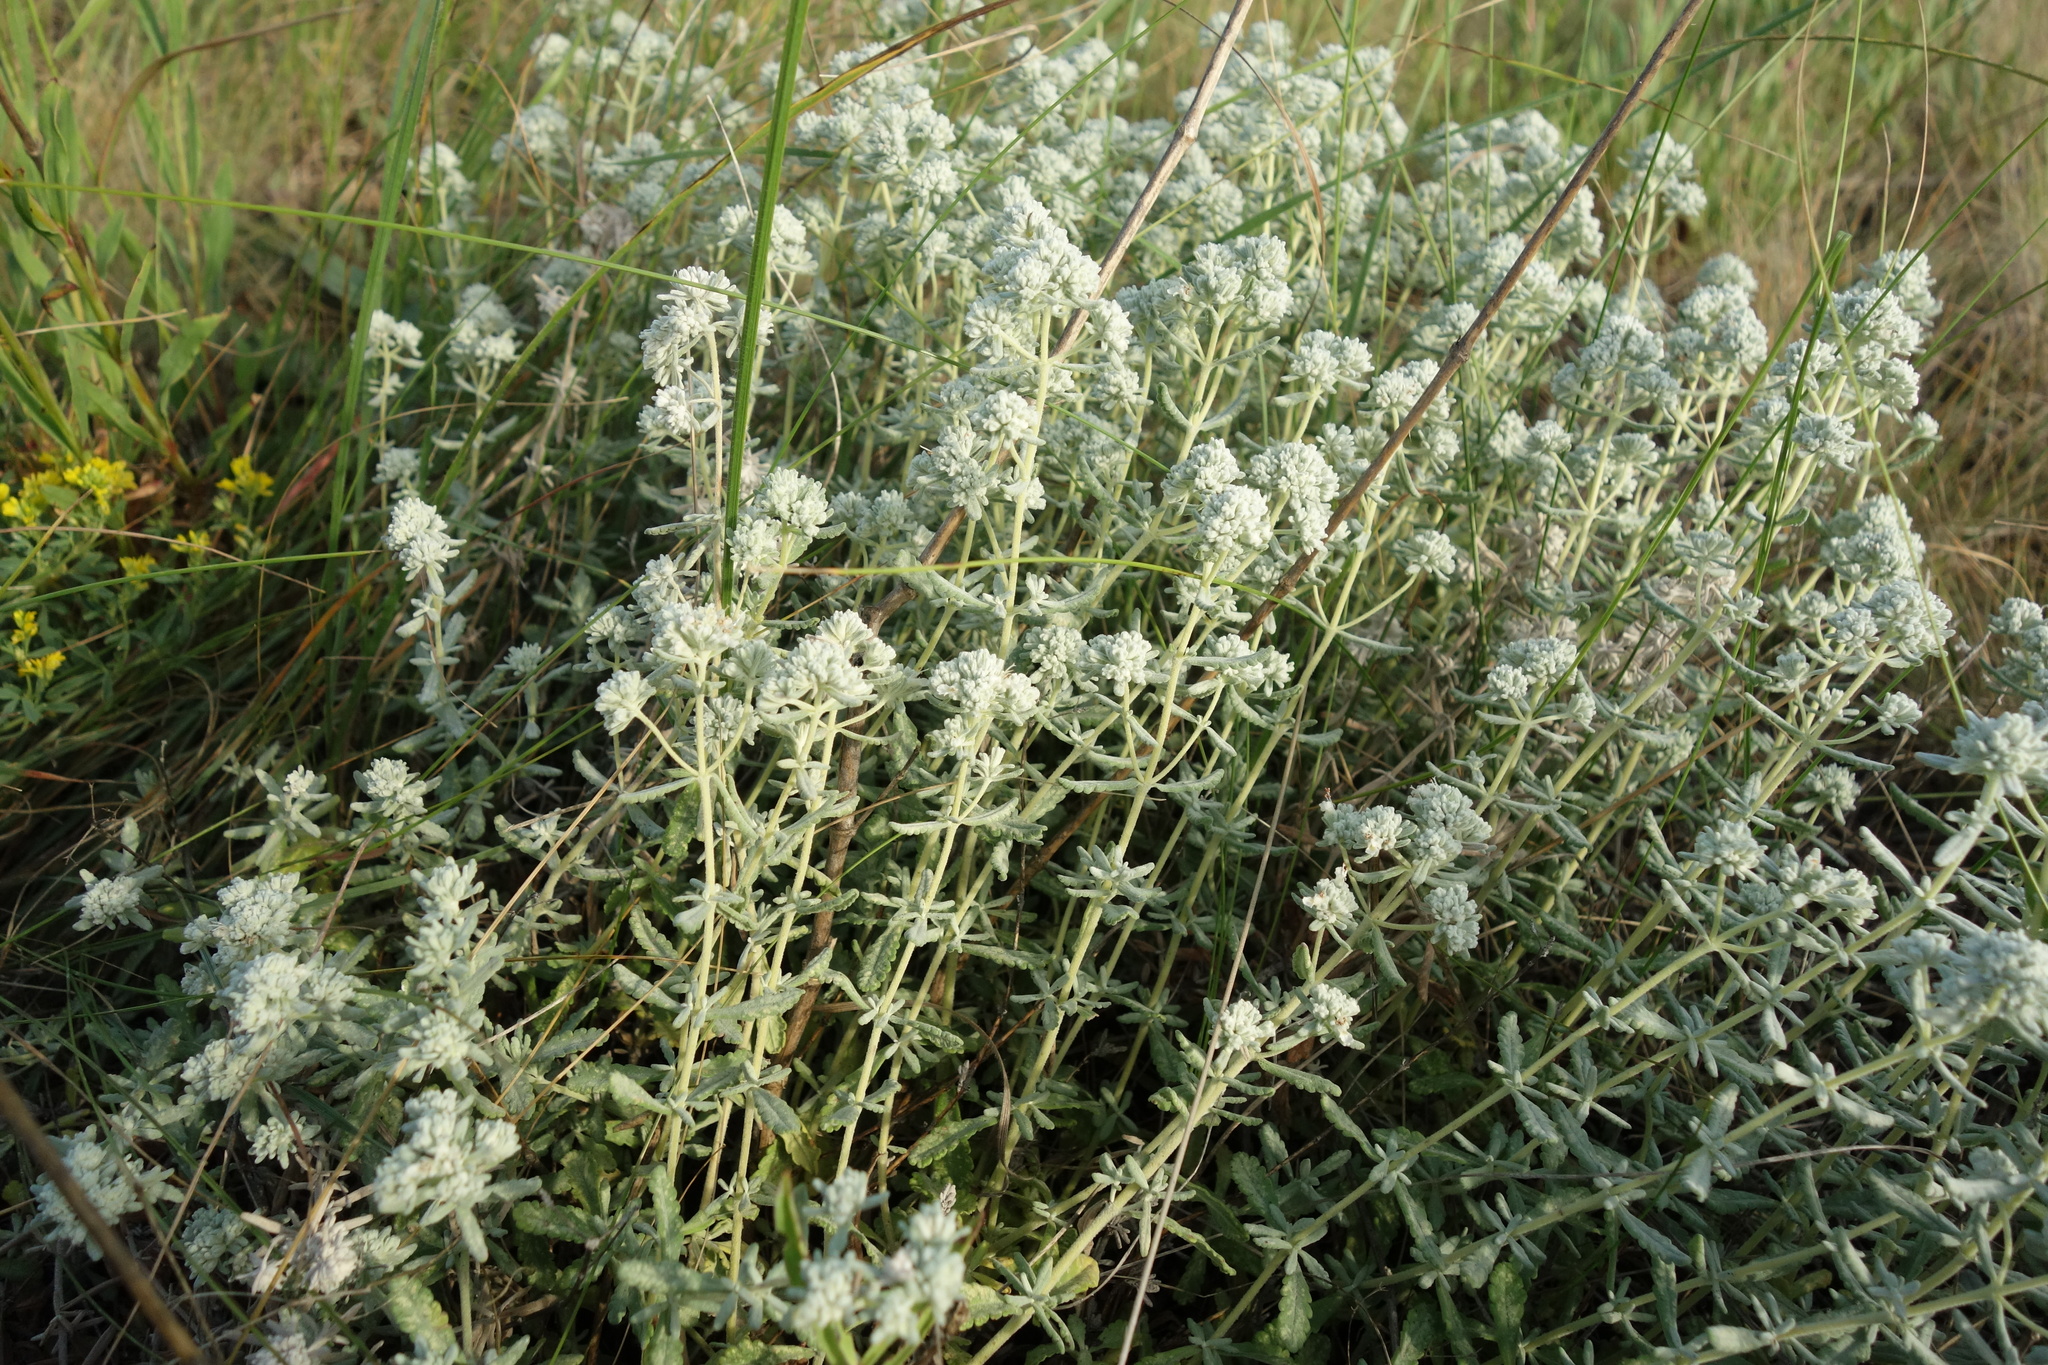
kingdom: Plantae
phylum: Tracheophyta
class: Magnoliopsida
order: Lamiales
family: Lamiaceae
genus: Teucrium
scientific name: Teucrium polium
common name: Poley
